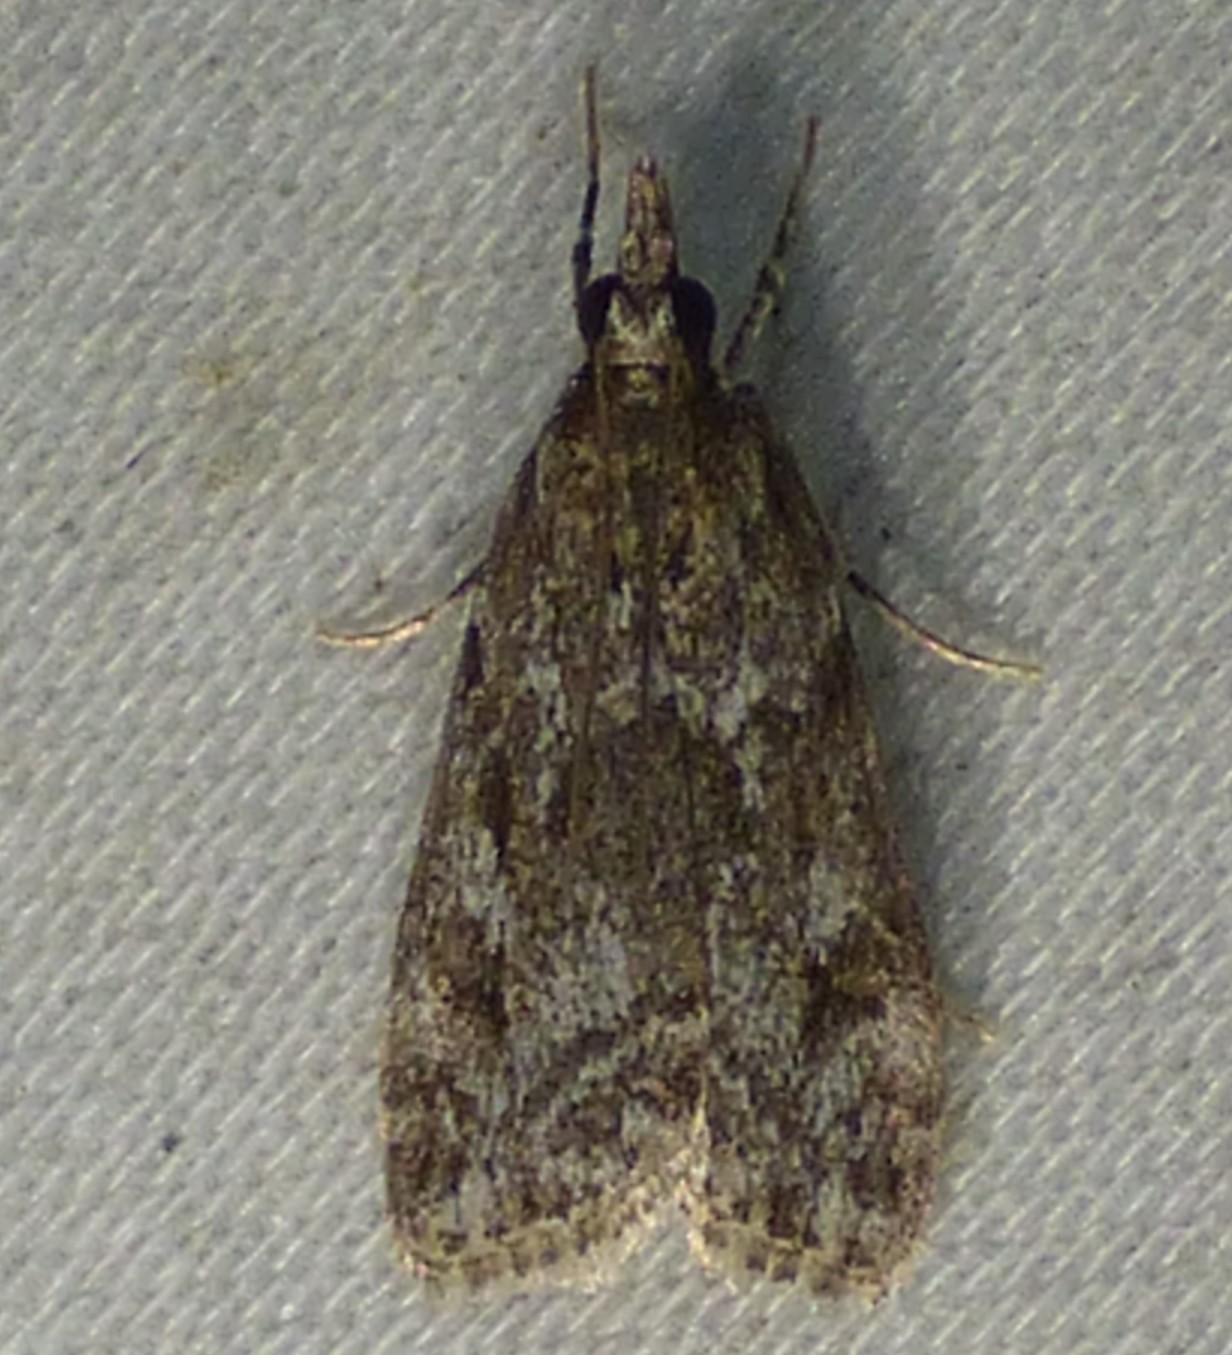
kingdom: Animalia
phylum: Arthropoda
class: Insecta
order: Lepidoptera
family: Crambidae
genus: Eudonia
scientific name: Eudonia heterosalis
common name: Mcdunnough's eudonia
